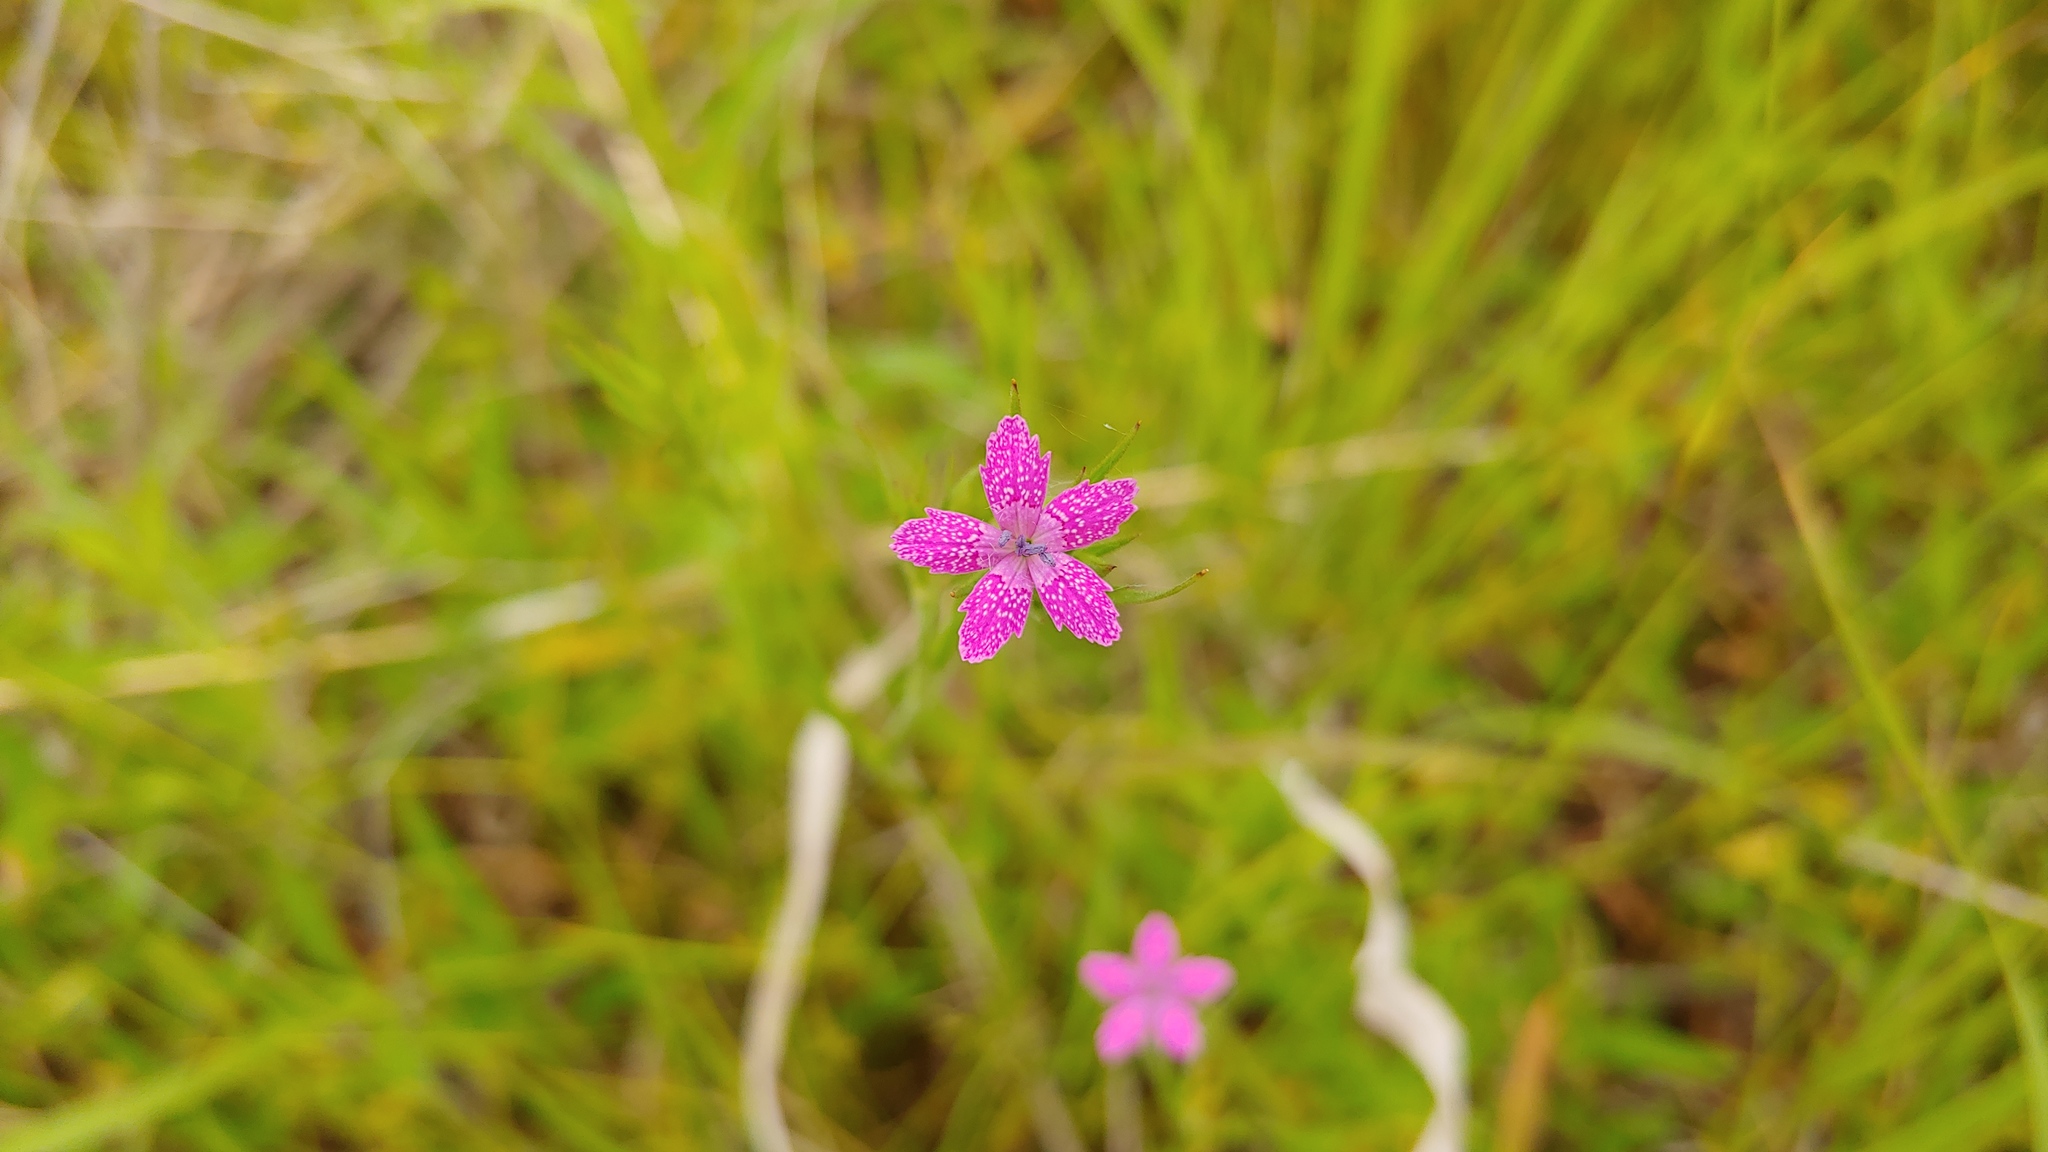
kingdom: Plantae
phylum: Tracheophyta
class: Magnoliopsida
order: Caryophyllales
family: Caryophyllaceae
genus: Dianthus
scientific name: Dianthus armeria
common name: Deptford pink
